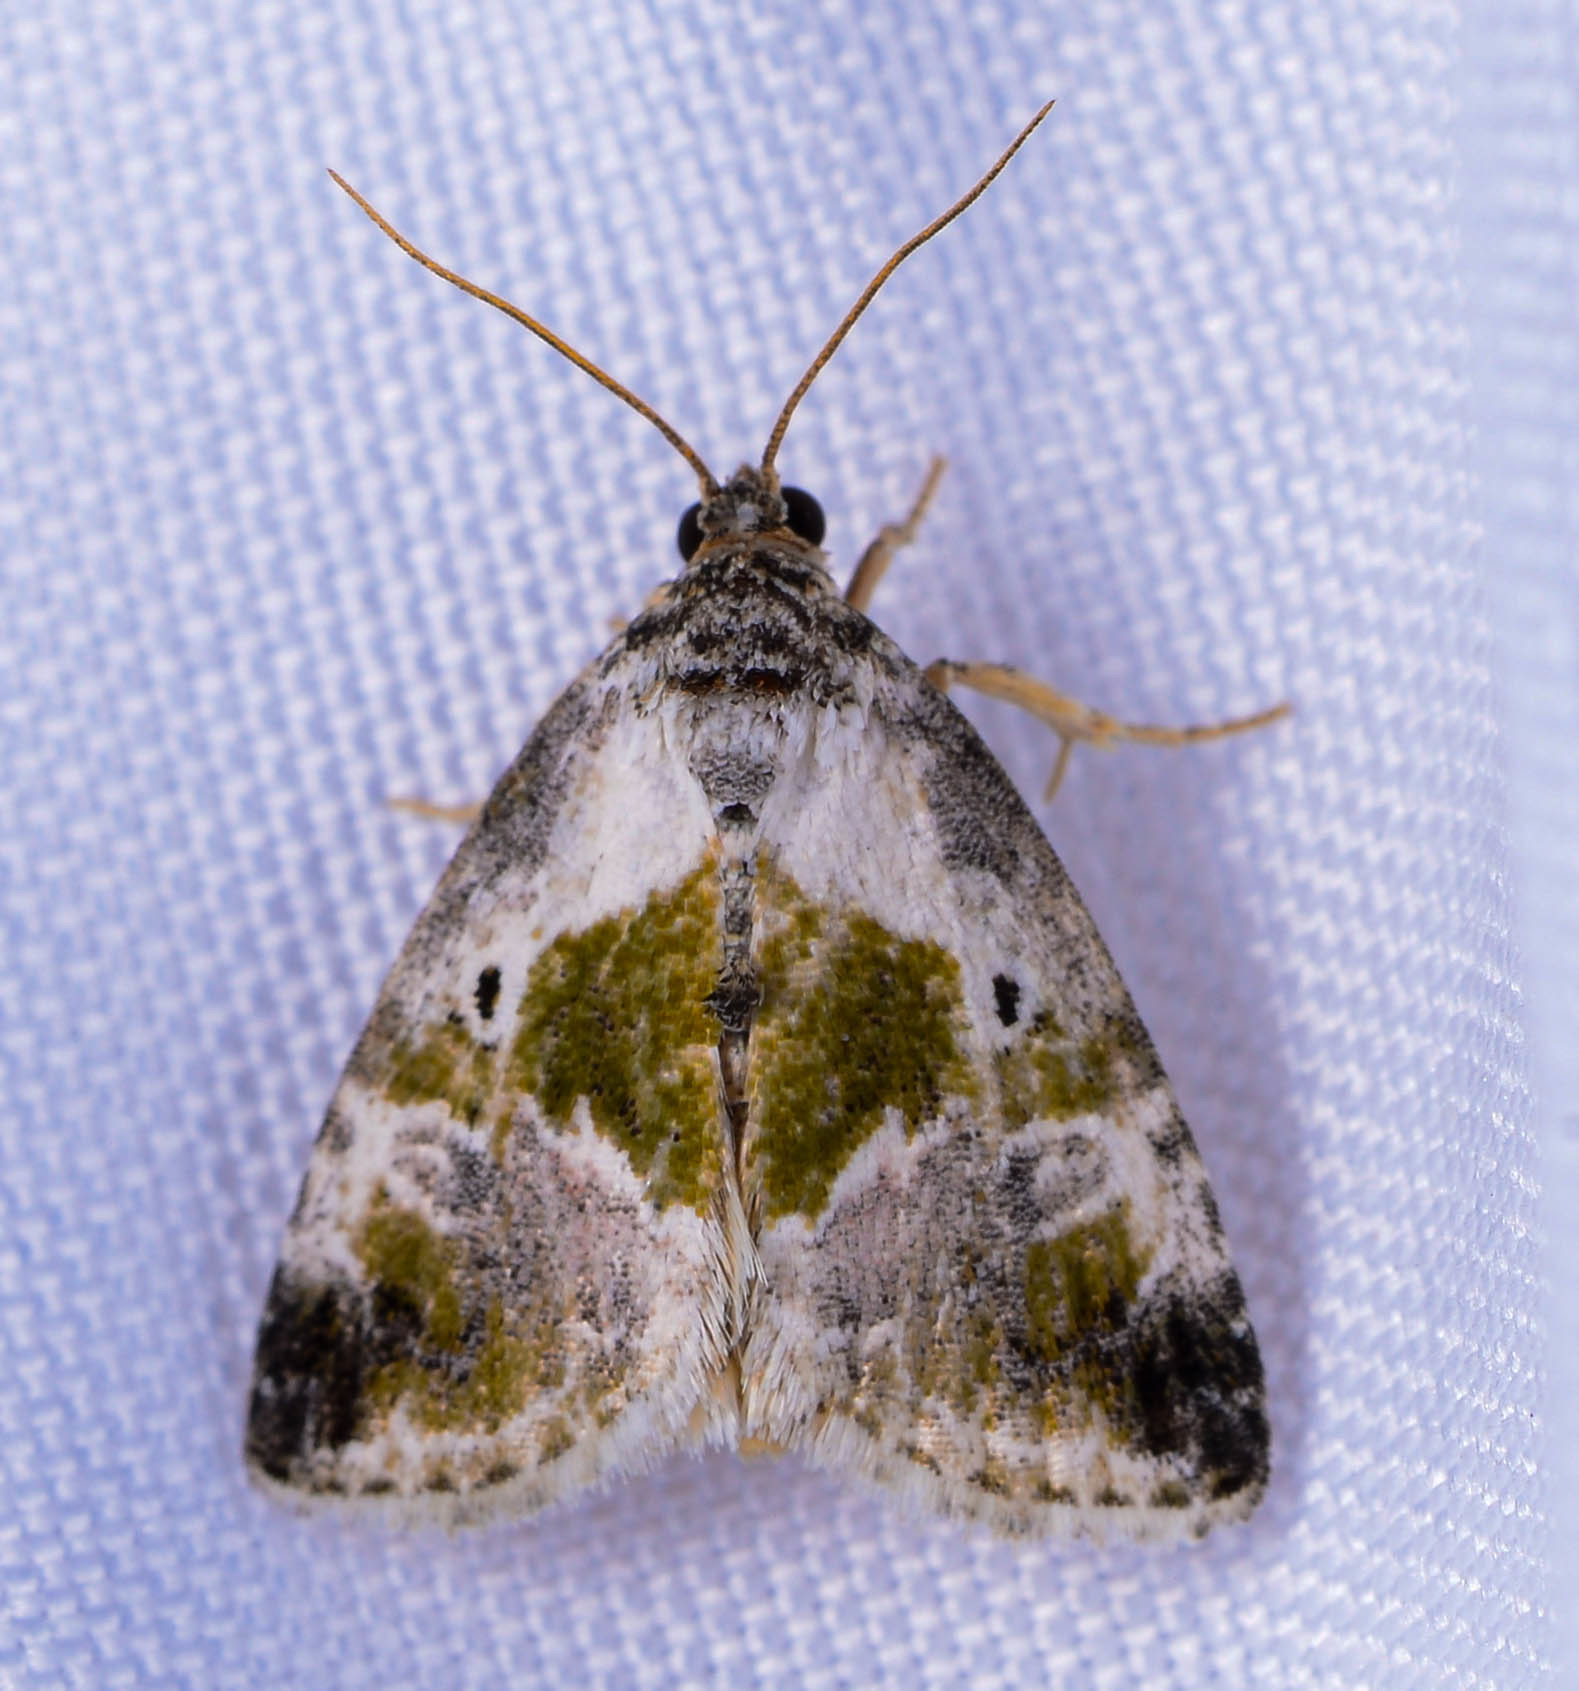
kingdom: Animalia
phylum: Arthropoda
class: Insecta
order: Lepidoptera
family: Noctuidae
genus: Maliattha
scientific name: Maliattha synochitis
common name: Black-dotted glyph
